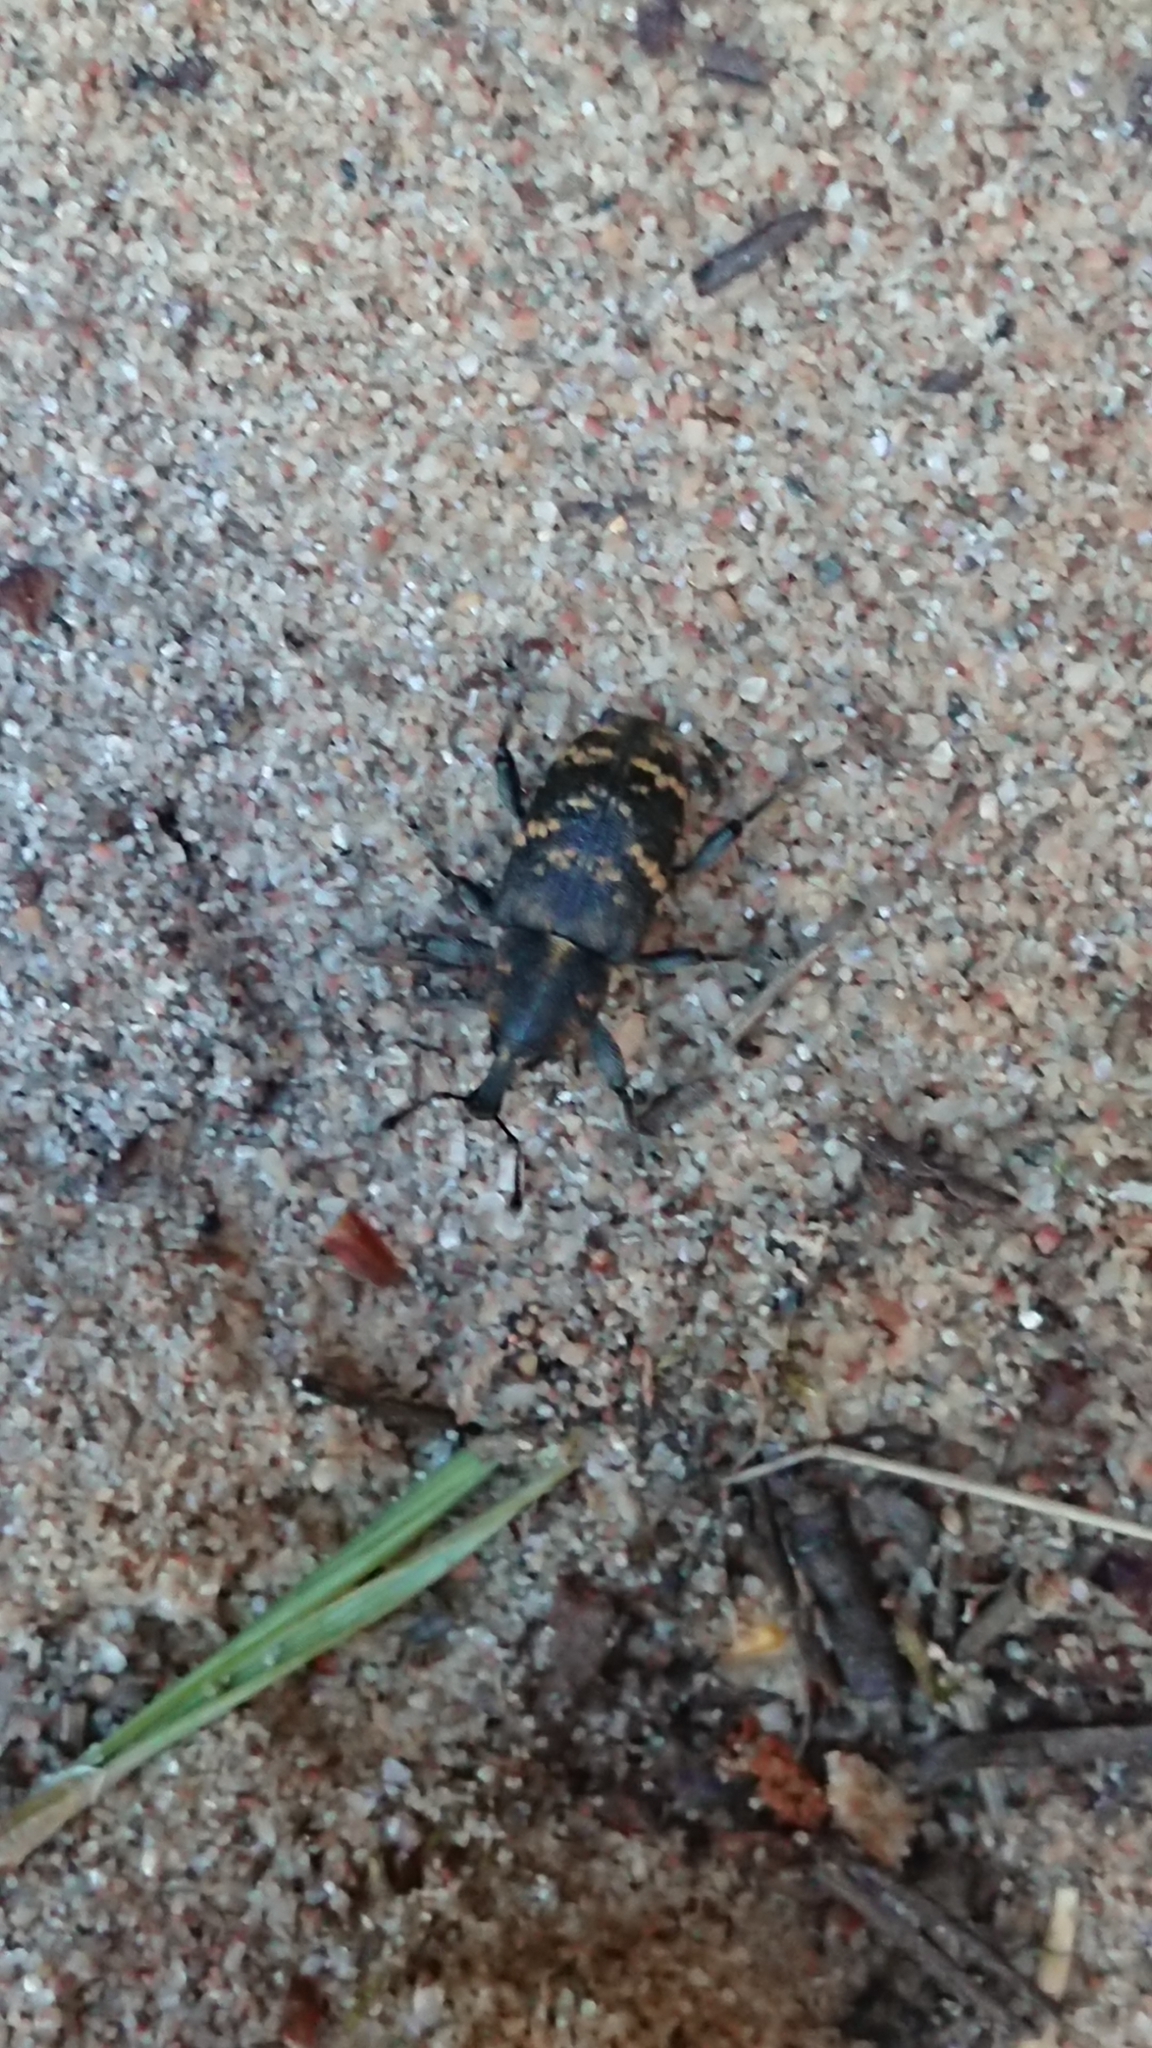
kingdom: Animalia
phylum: Arthropoda
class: Insecta
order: Coleoptera
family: Curculionidae
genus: Hylobius
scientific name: Hylobius abietis
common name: Large pine weevil
